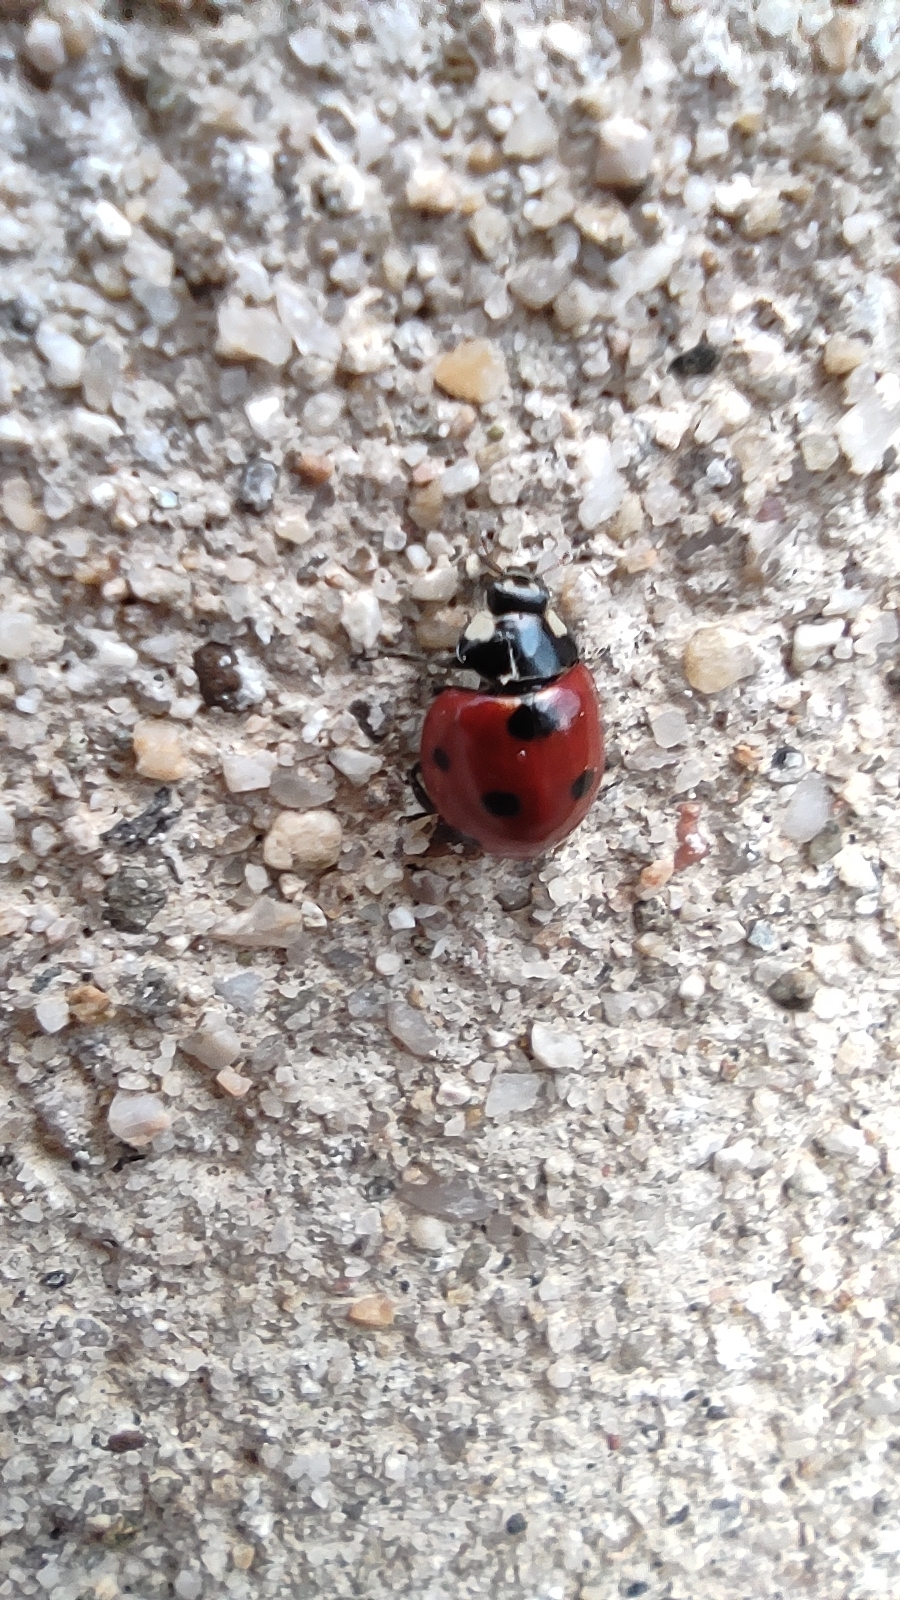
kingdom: Animalia
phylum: Arthropoda
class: Insecta
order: Coleoptera
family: Coccinellidae
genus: Coccinella
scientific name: Coccinella septempunctata
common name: Sevenspotted lady beetle
